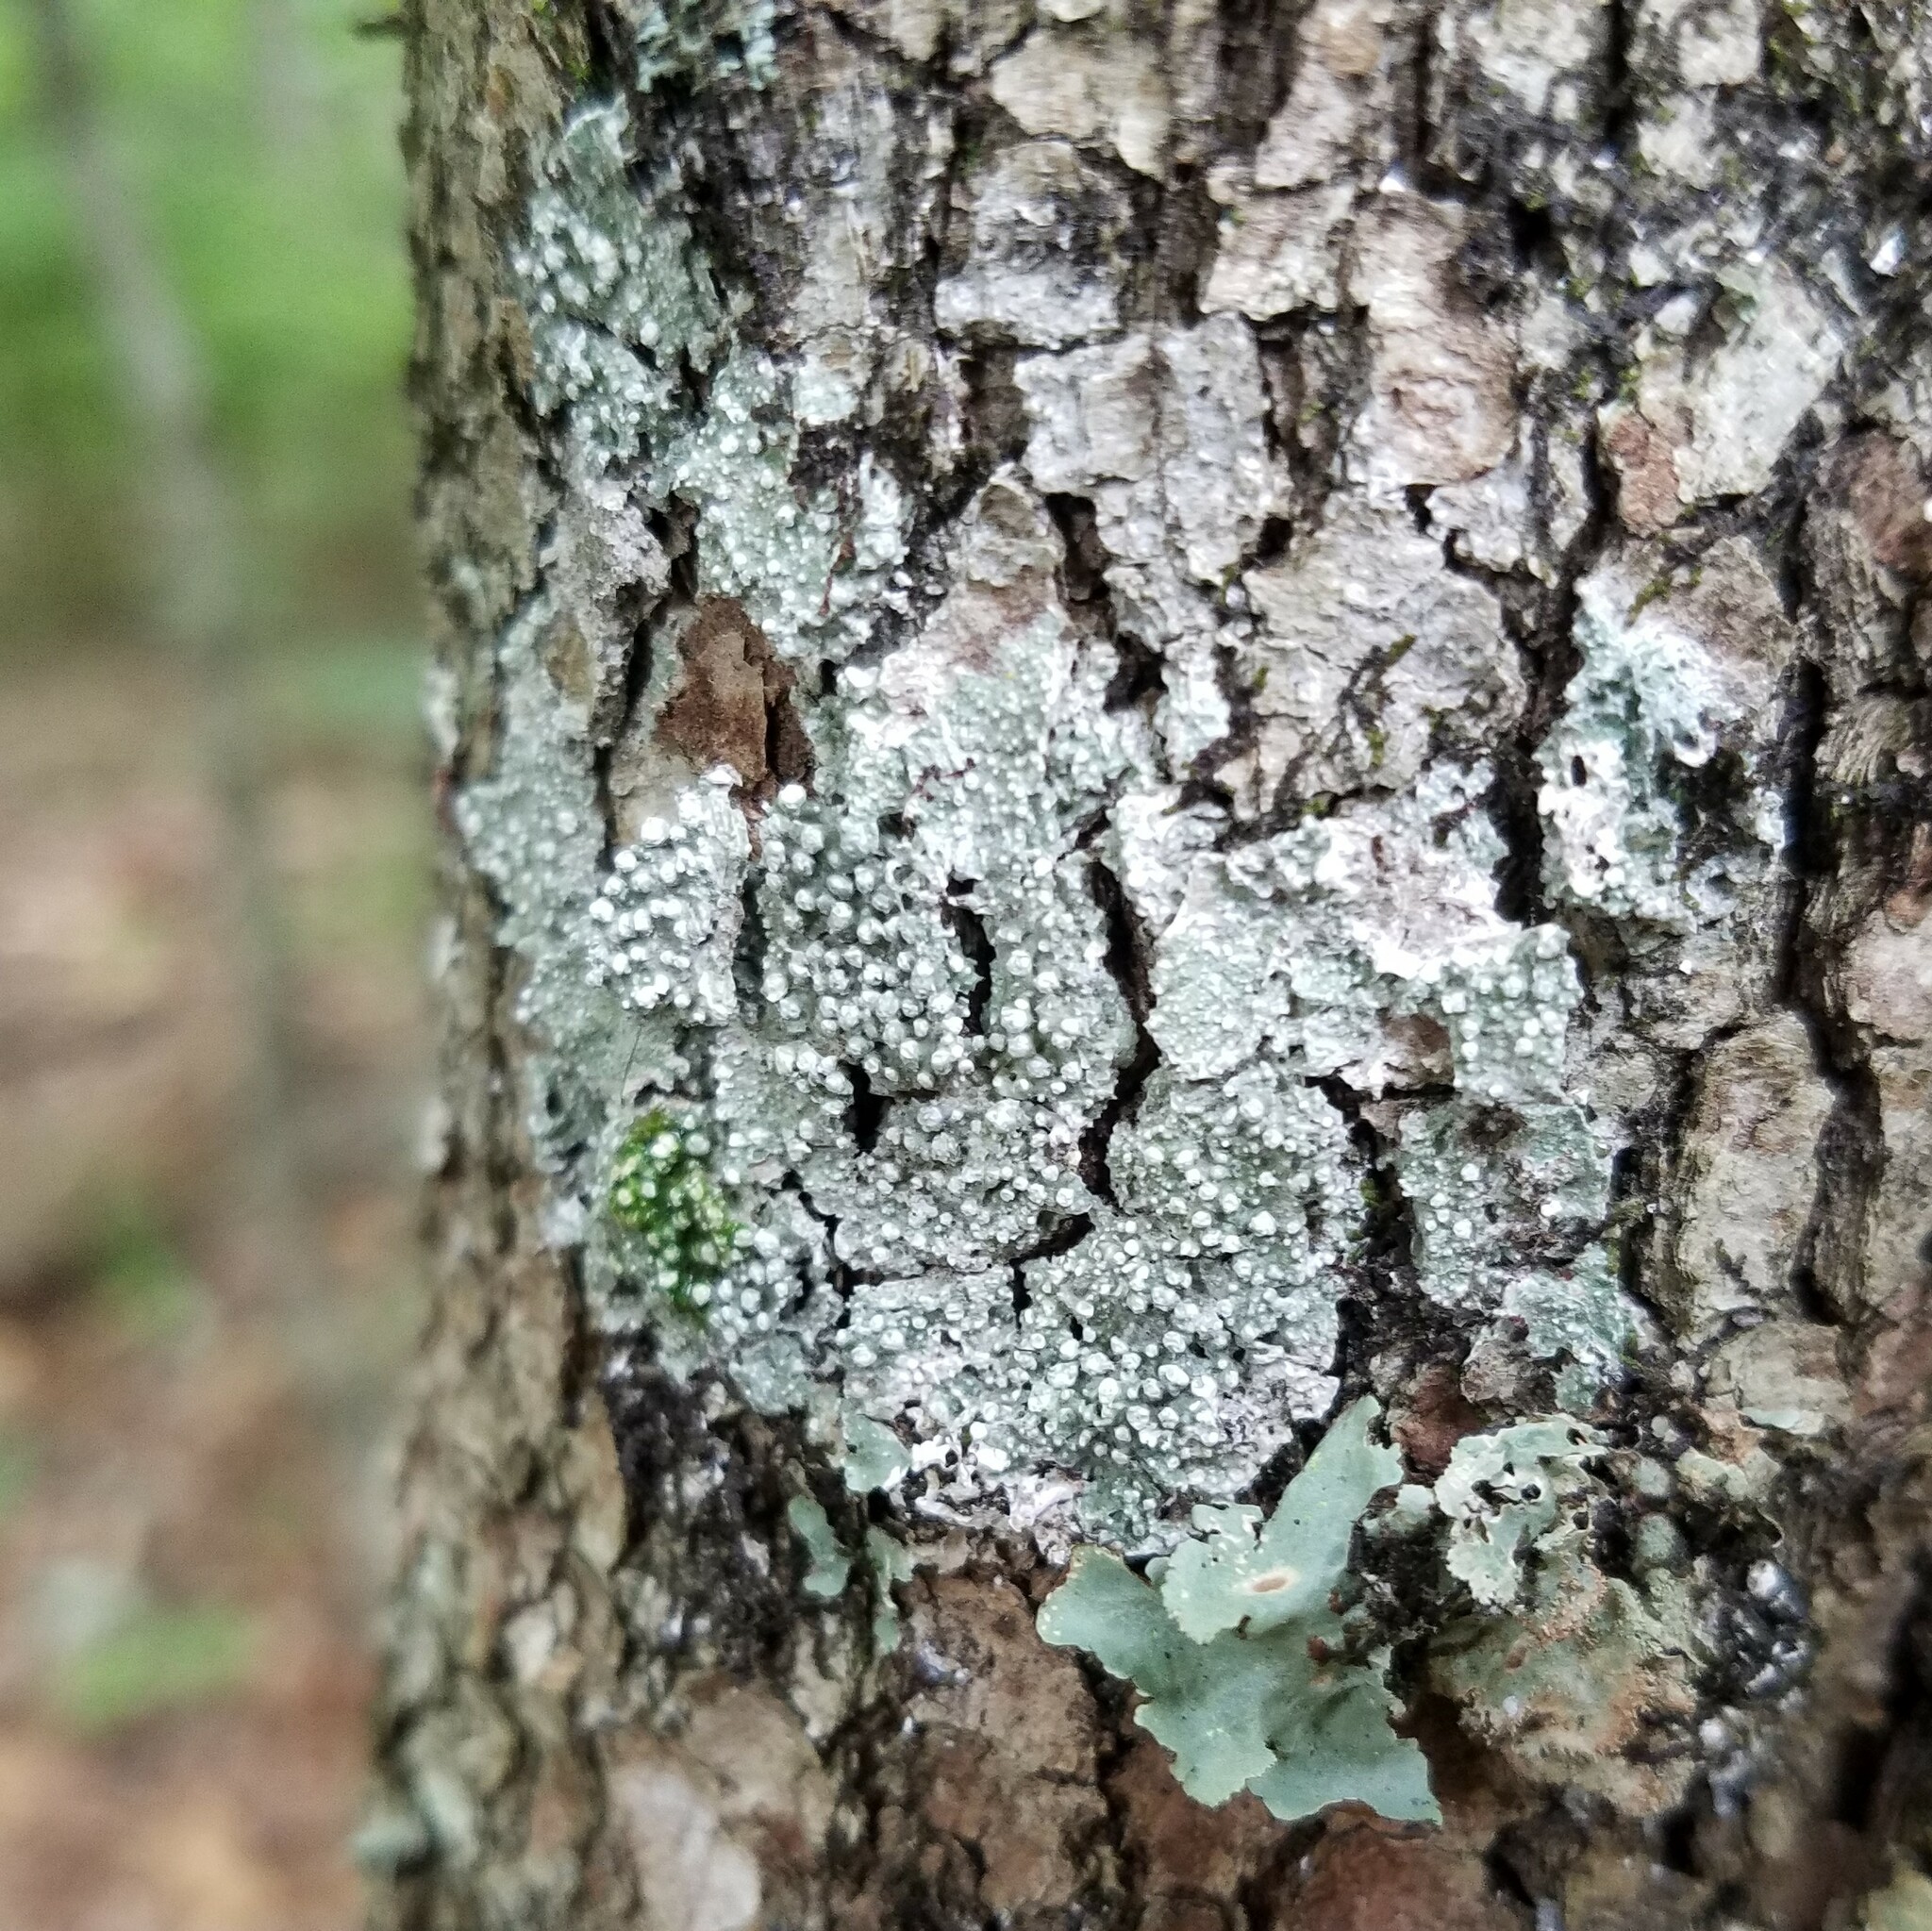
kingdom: Fungi
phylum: Ascomycota
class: Lecanoromycetes
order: Pertusariales
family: Pertusariaceae
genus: Lepra
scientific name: Lepra amara
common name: Bitter wart lichen
